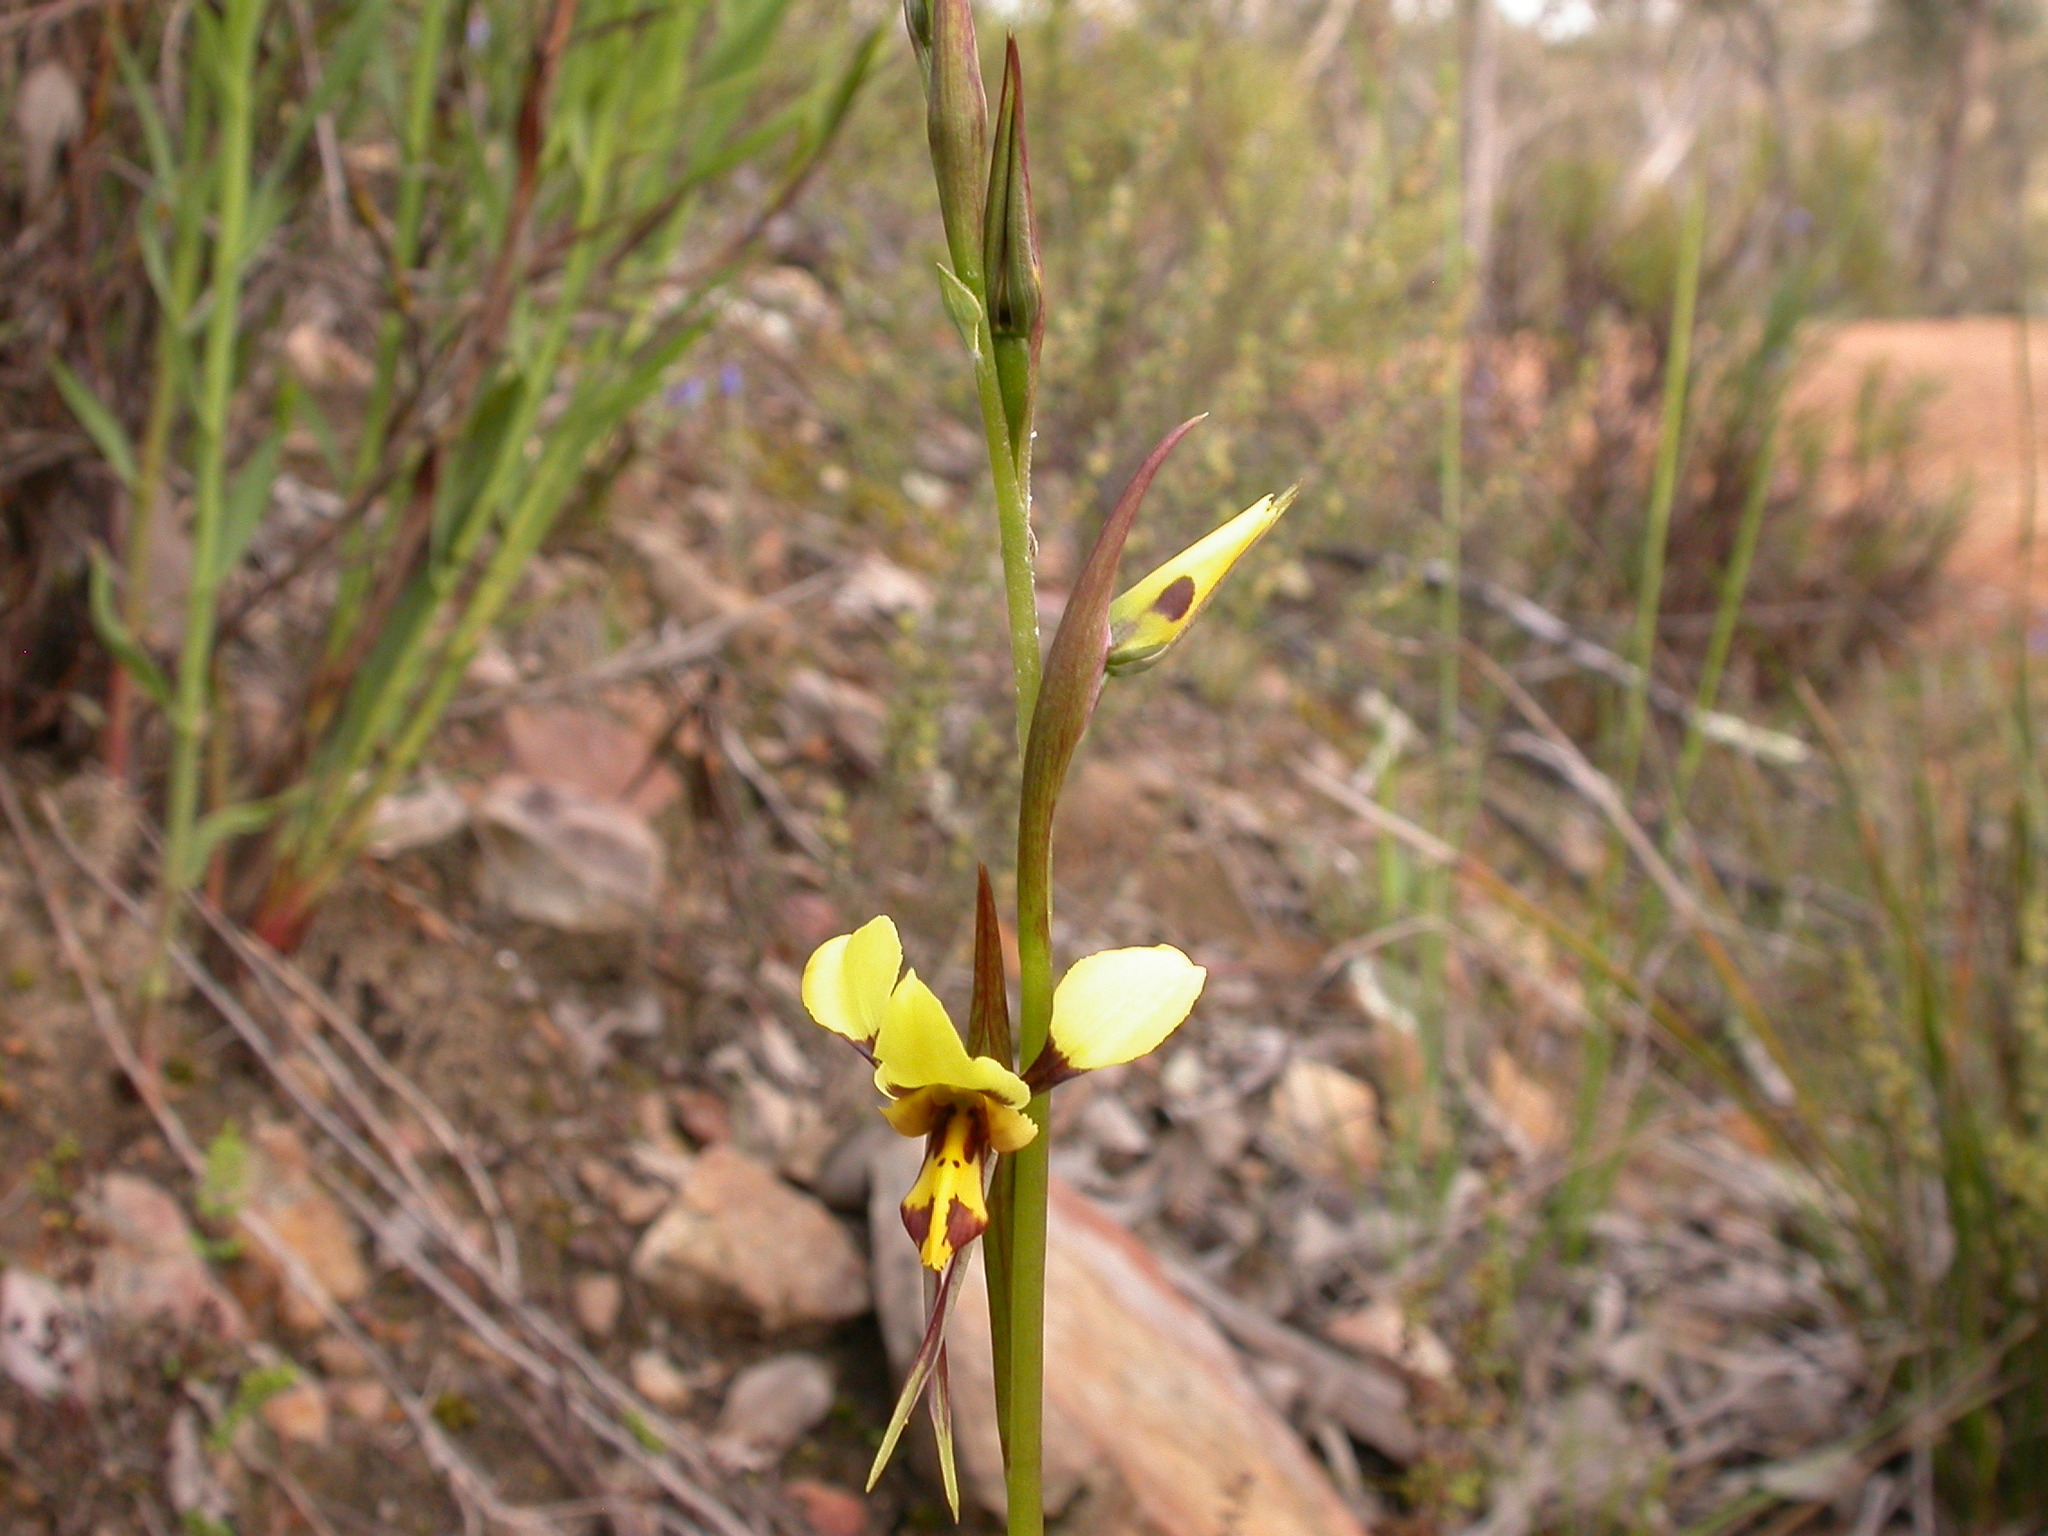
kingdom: Plantae
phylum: Tracheophyta
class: Liliopsida
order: Asparagales
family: Orchidaceae
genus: Diuris
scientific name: Diuris sulphurea
